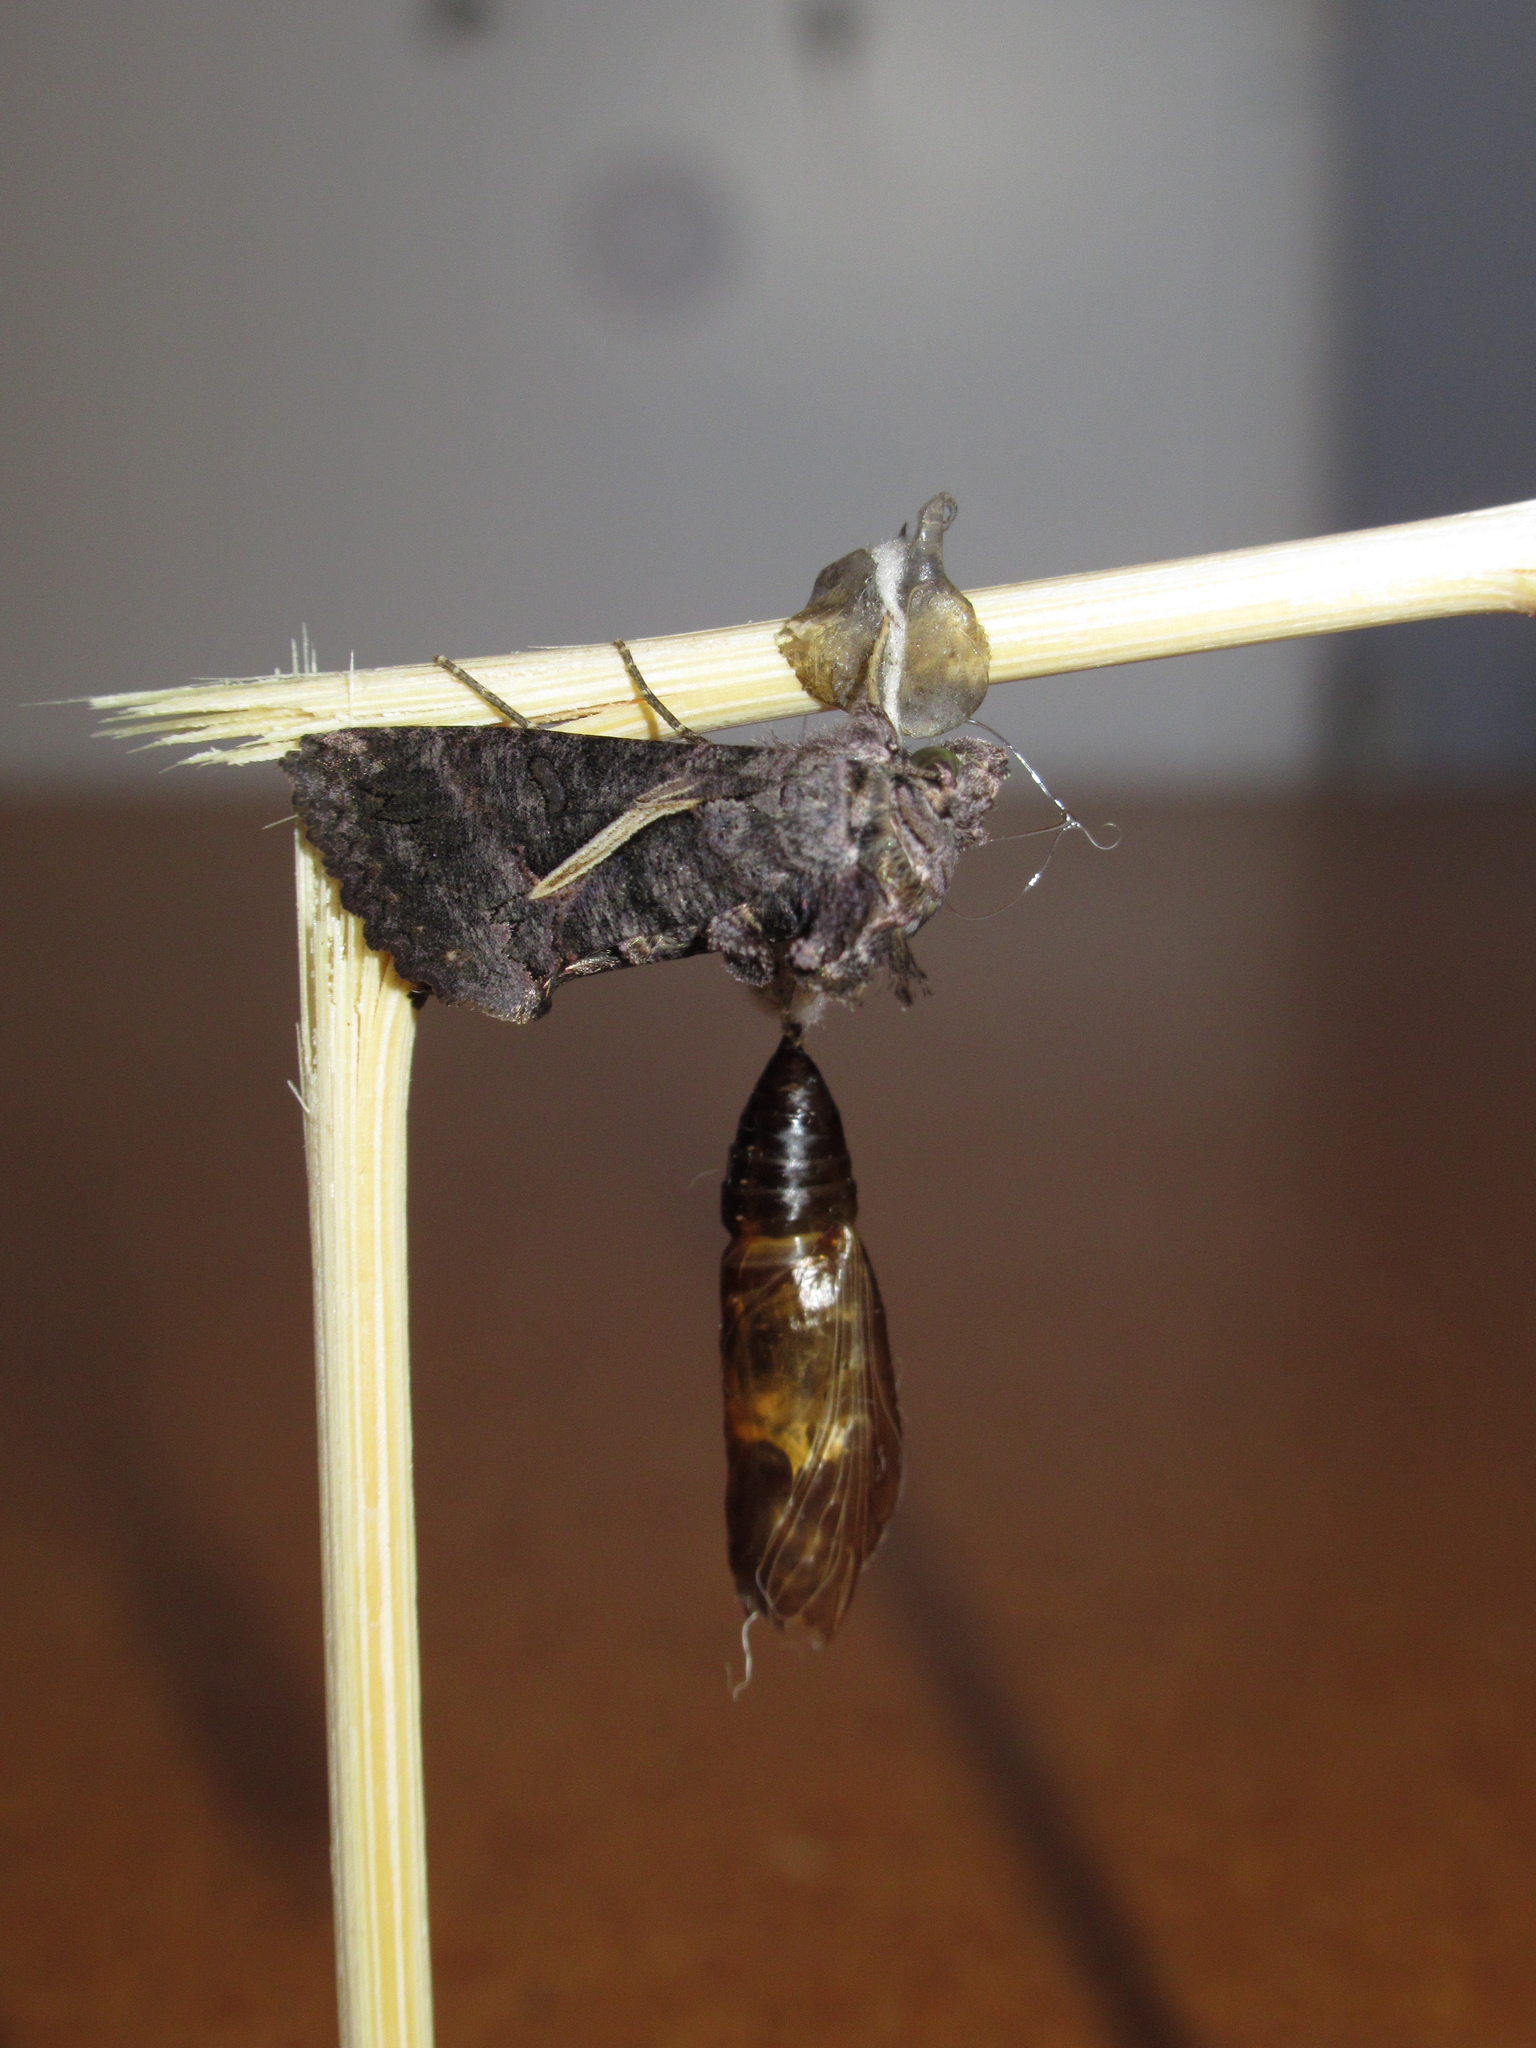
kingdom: Animalia
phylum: Arthropoda
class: Insecta
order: Lepidoptera
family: Noctuidae
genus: Ctenoplusia
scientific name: Ctenoplusia albostriata
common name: Moth
